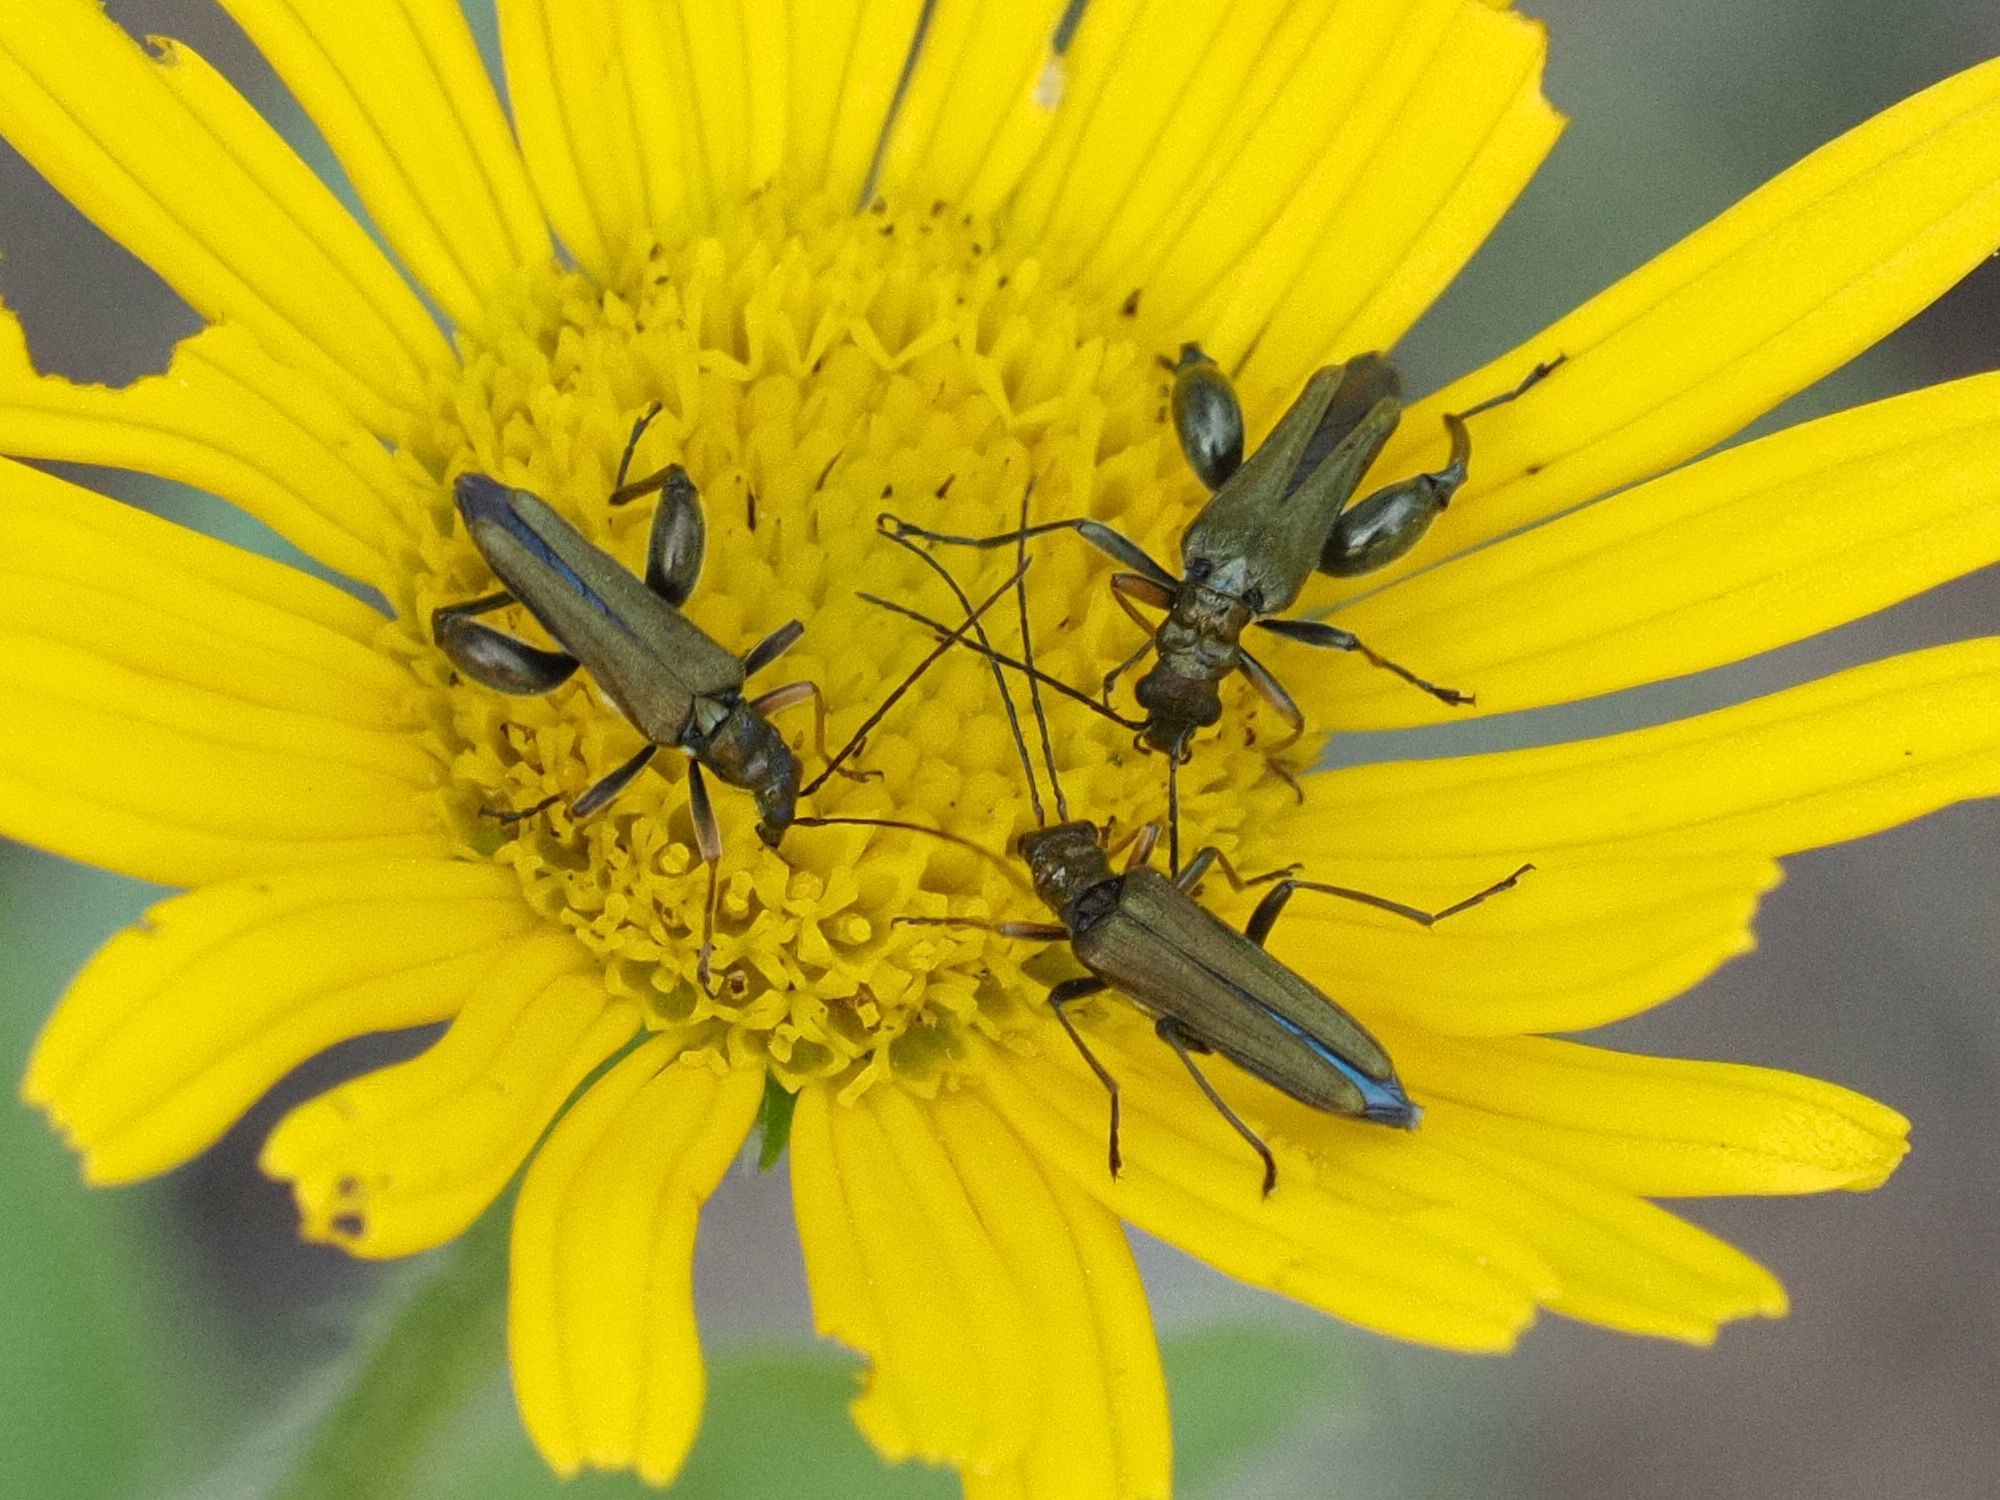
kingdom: Animalia
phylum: Arthropoda
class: Insecta
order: Coleoptera
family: Oedemeridae
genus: Oedemera
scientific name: Oedemera flavipes
